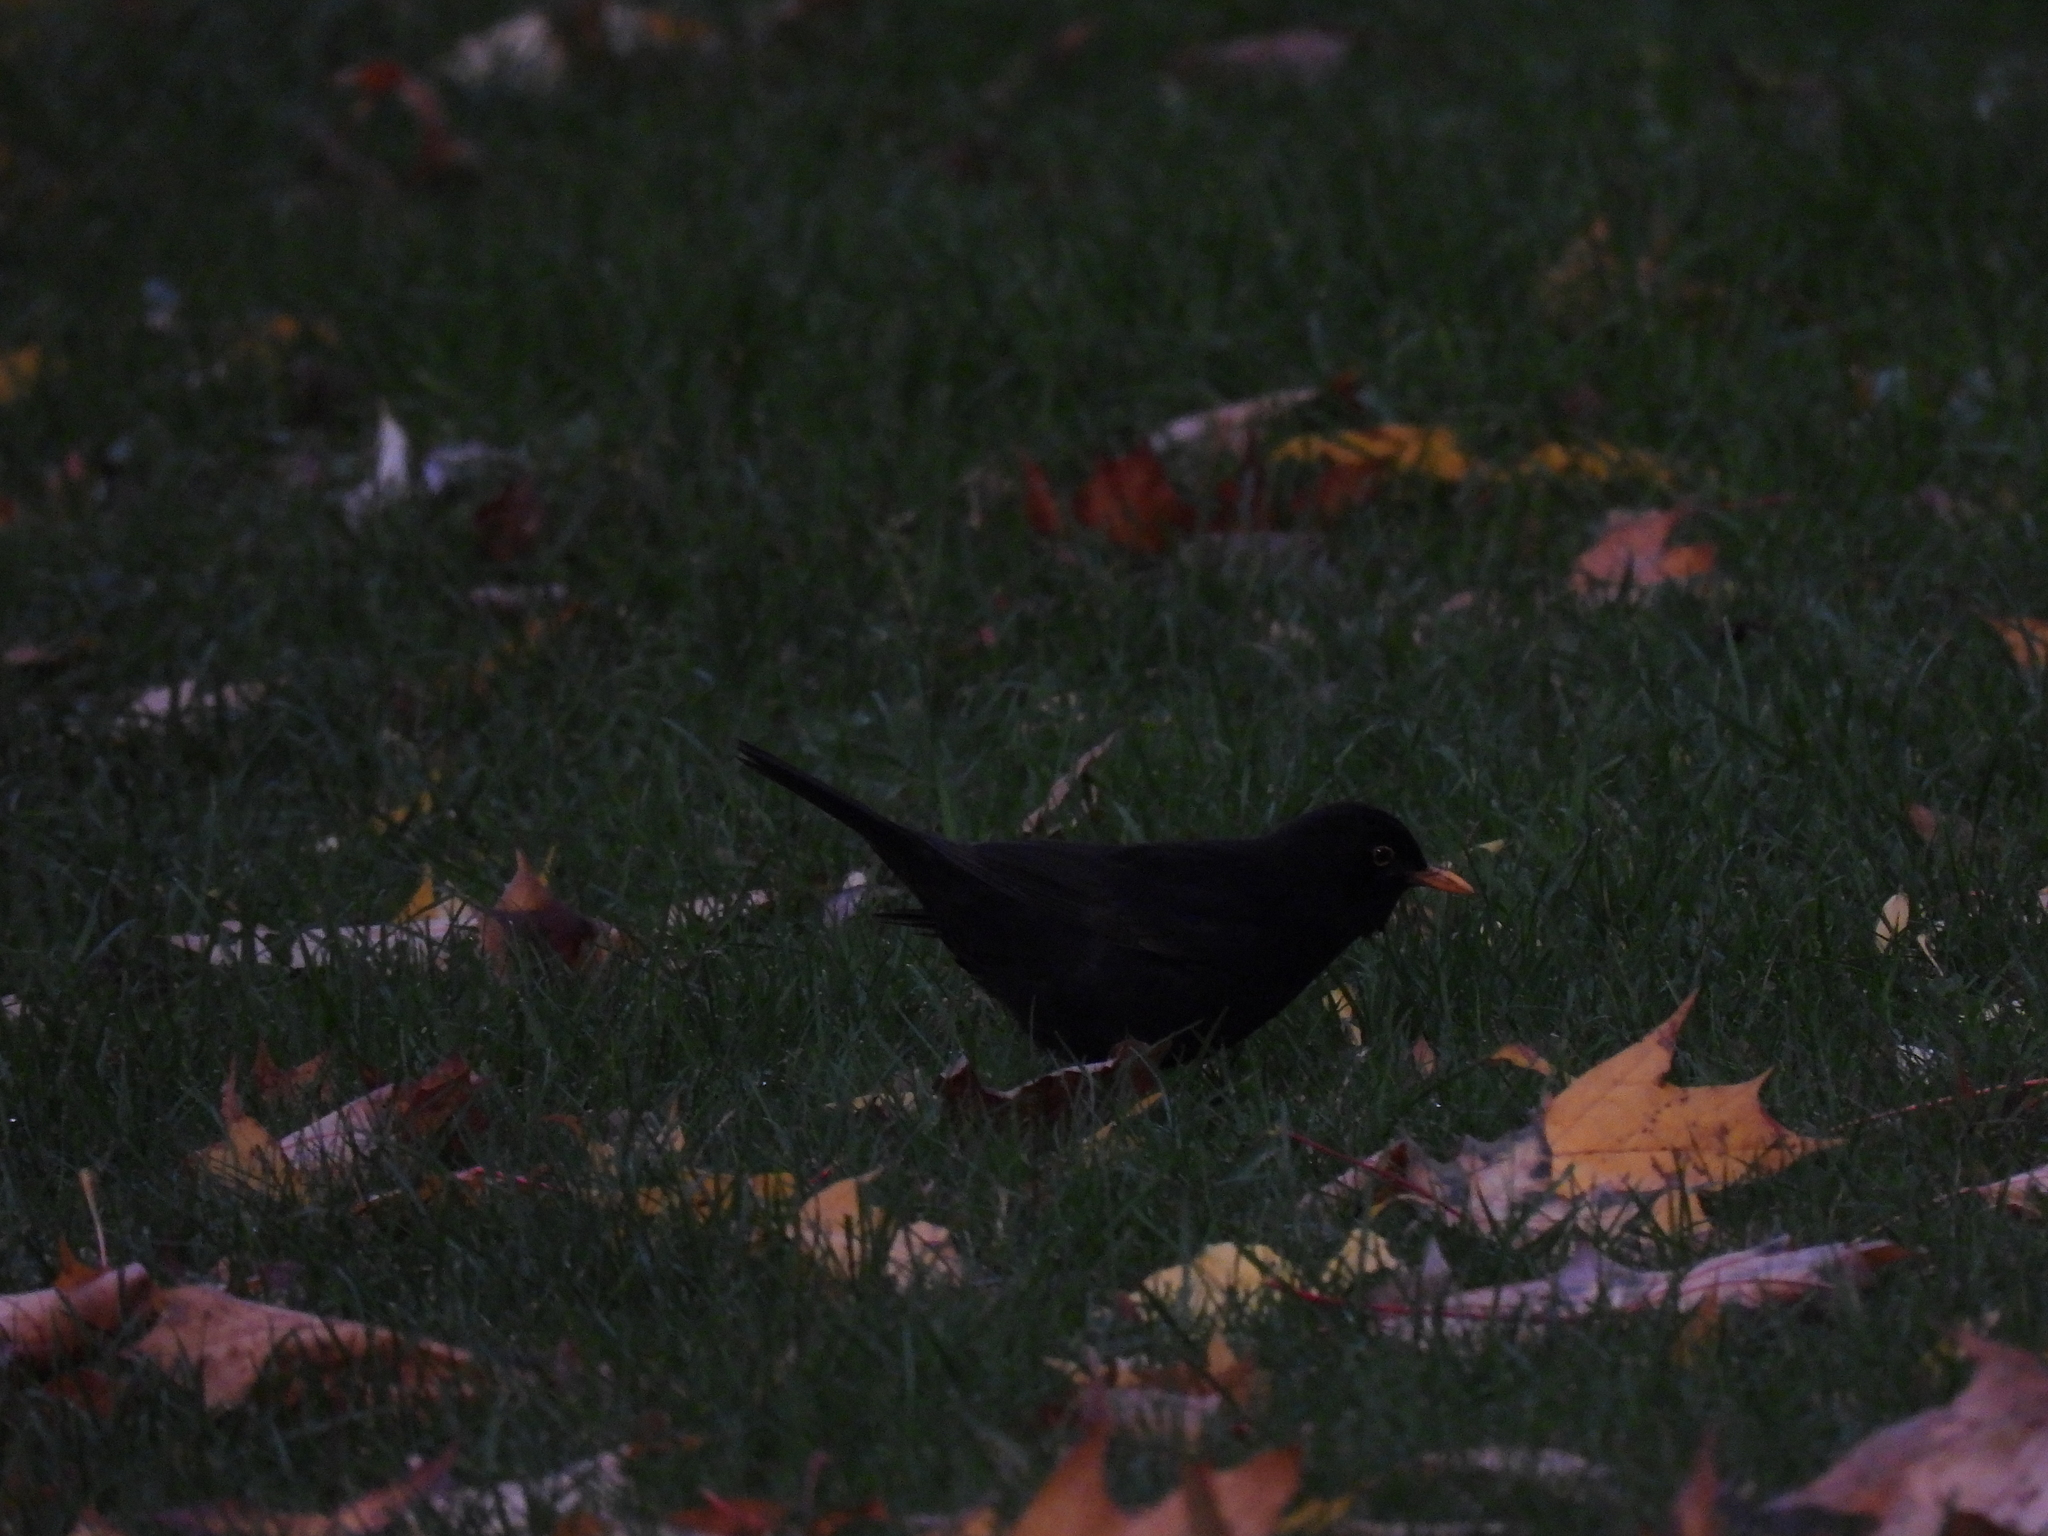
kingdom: Animalia
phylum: Chordata
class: Aves
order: Passeriformes
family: Turdidae
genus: Turdus
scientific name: Turdus merula
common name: Common blackbird
